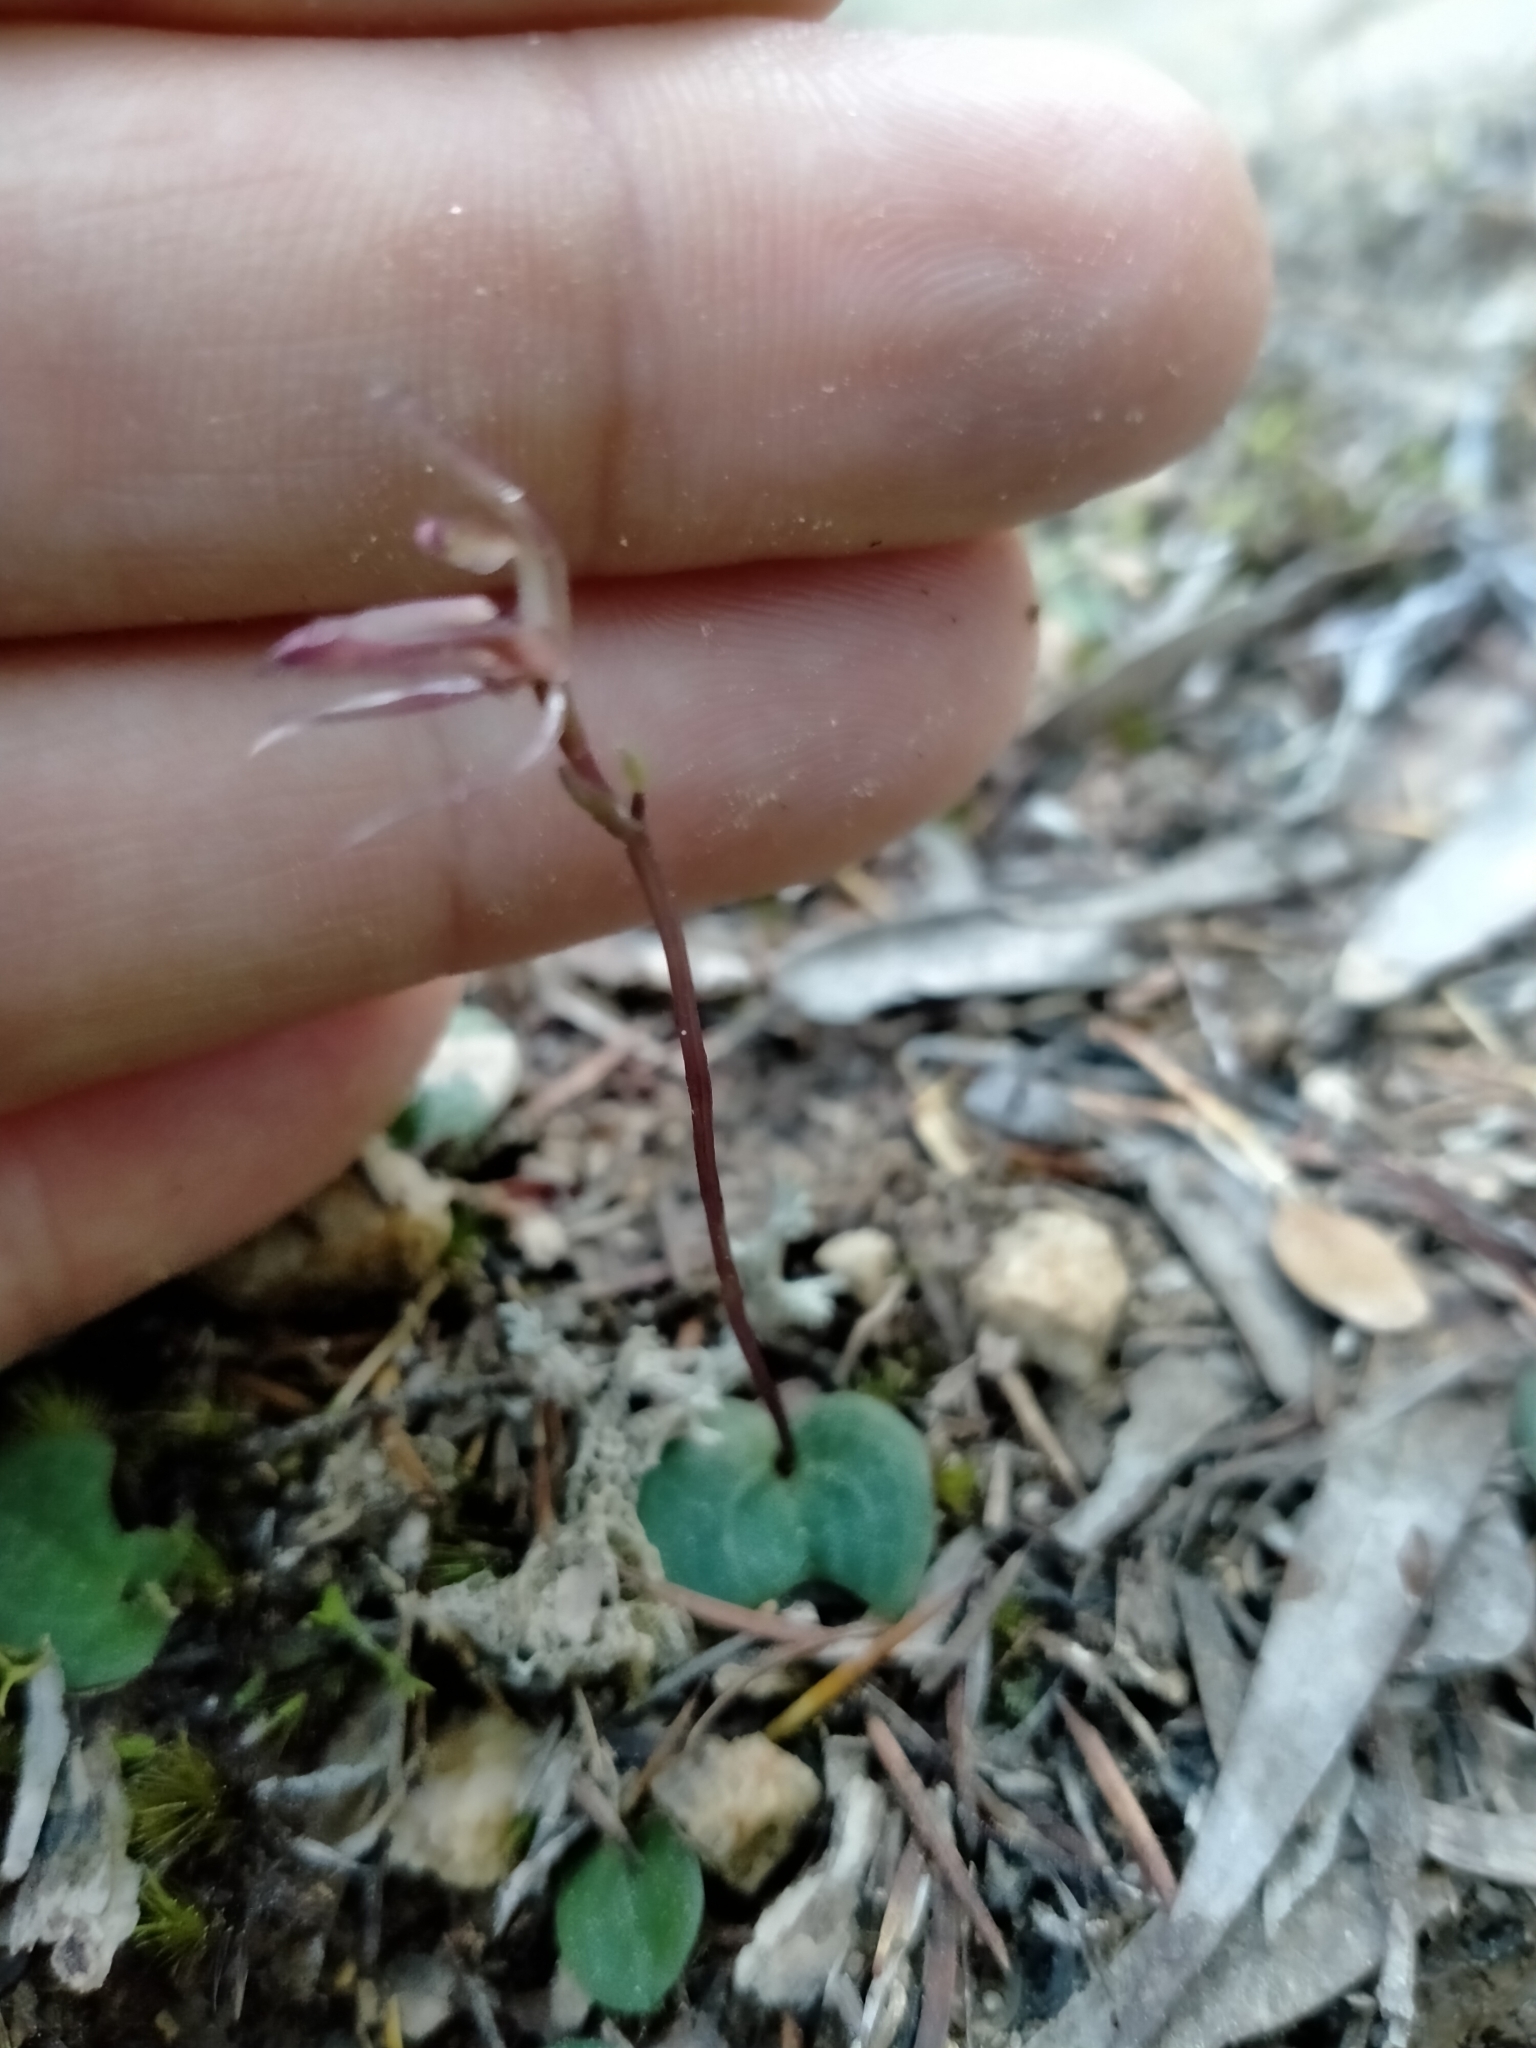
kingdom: Plantae
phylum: Tracheophyta
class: Liliopsida
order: Asparagales
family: Orchidaceae
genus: Cyrtostylis
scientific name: Cyrtostylis rotundifolia
